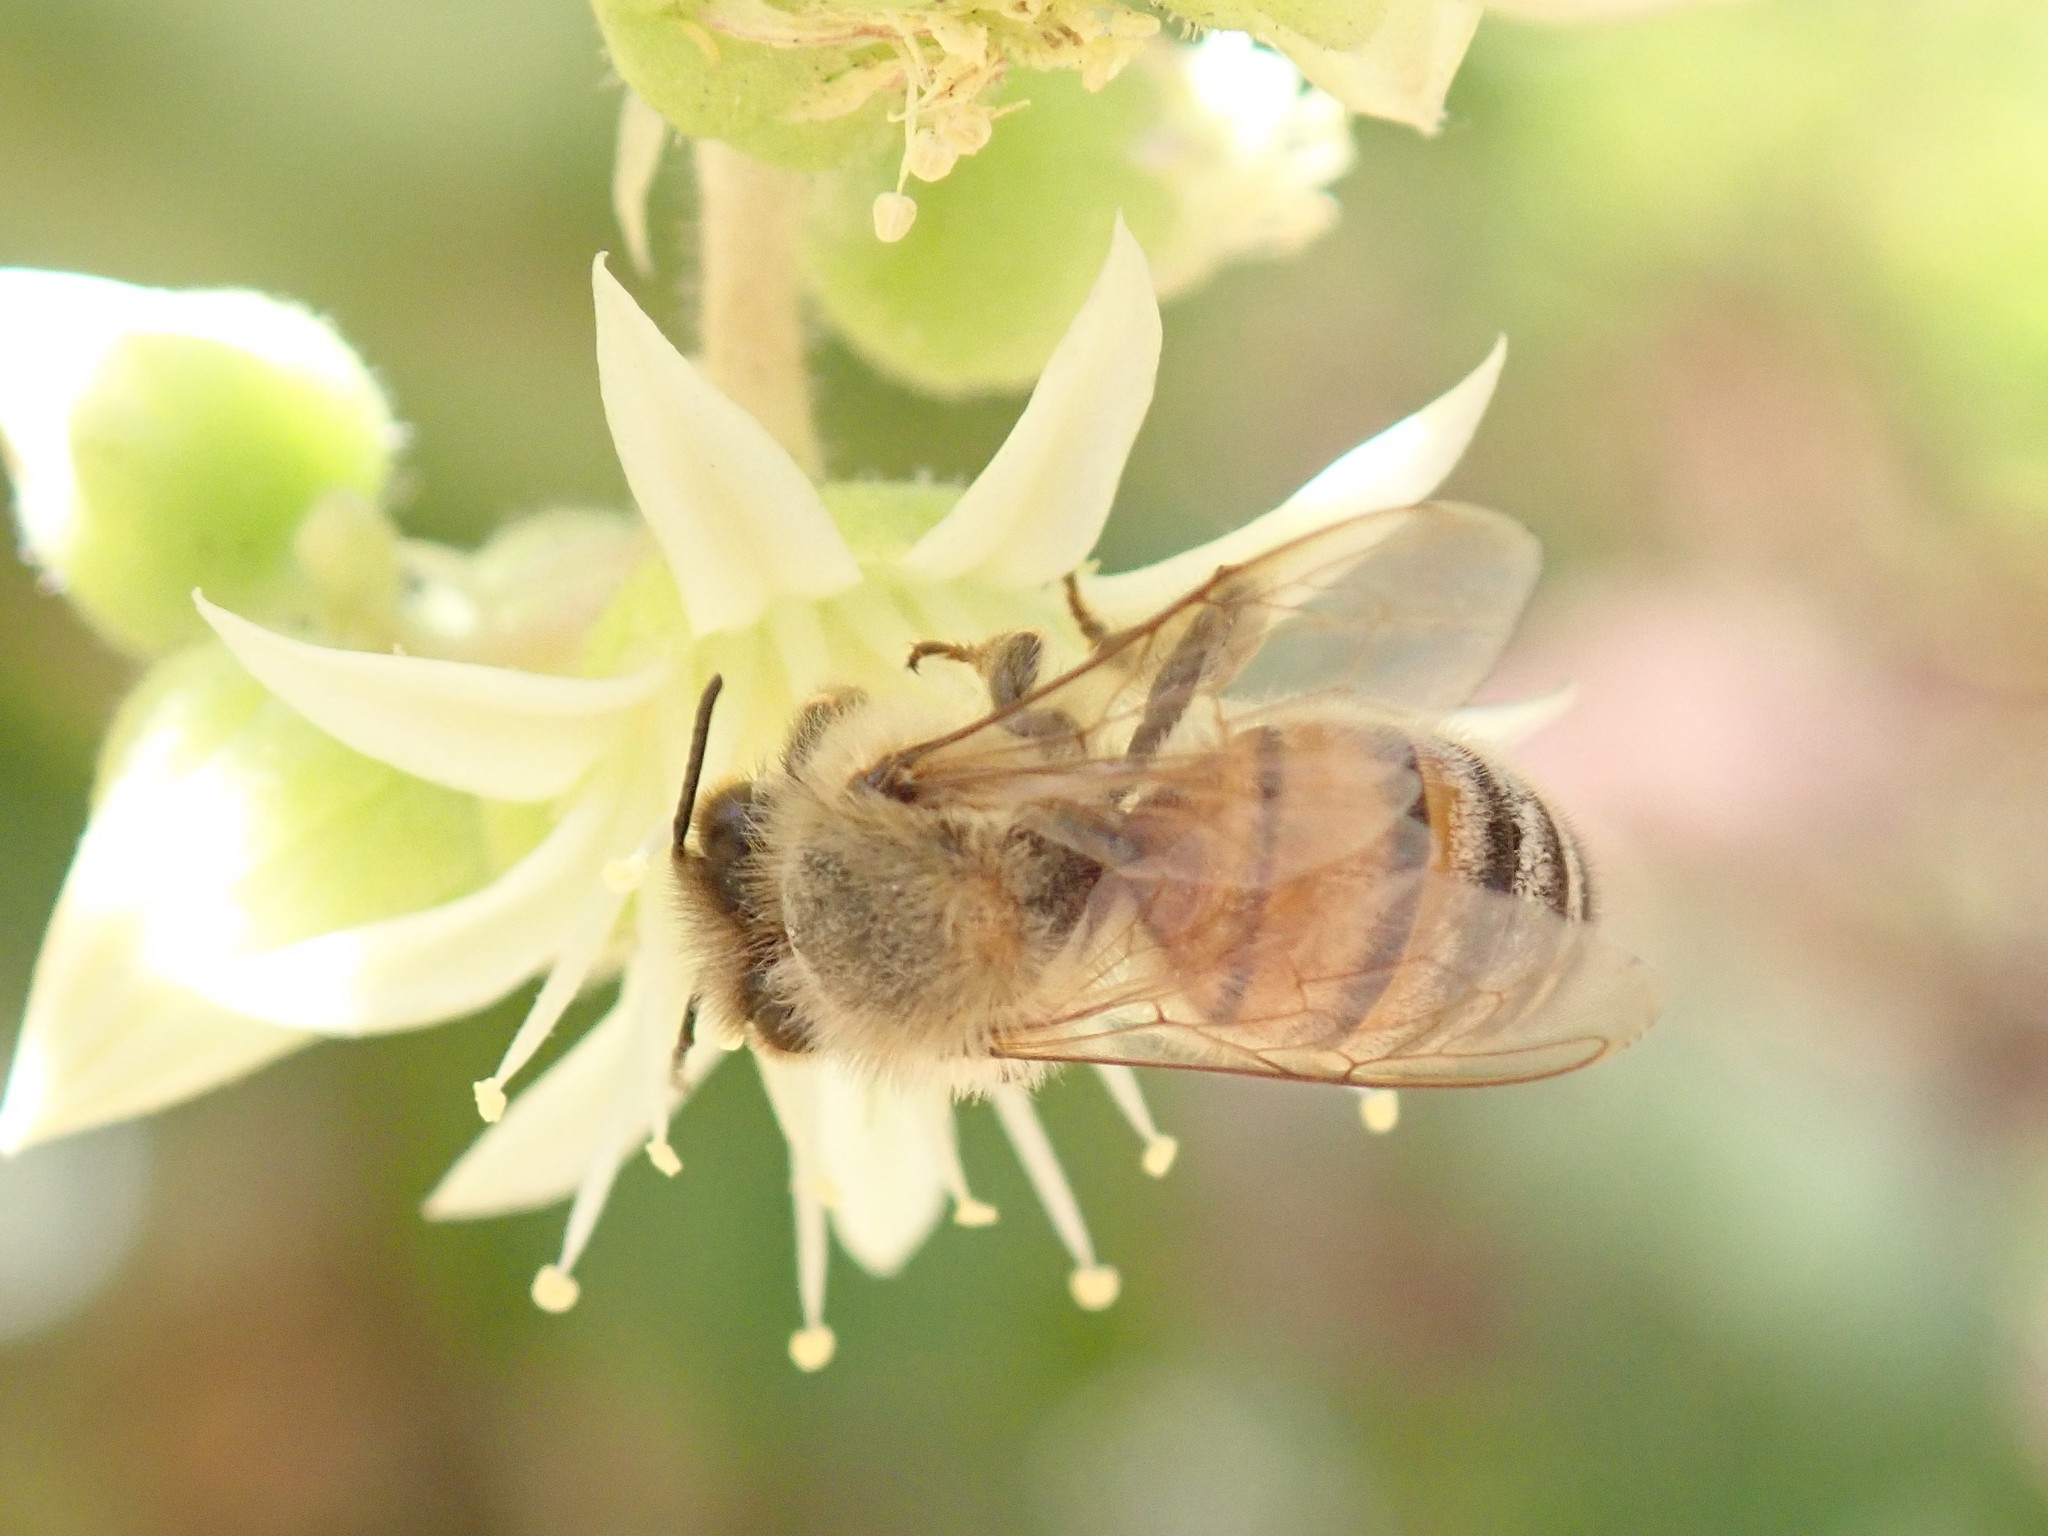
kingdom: Animalia
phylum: Arthropoda
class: Insecta
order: Hymenoptera
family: Apidae
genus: Apis
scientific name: Apis mellifera
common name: Honey bee
